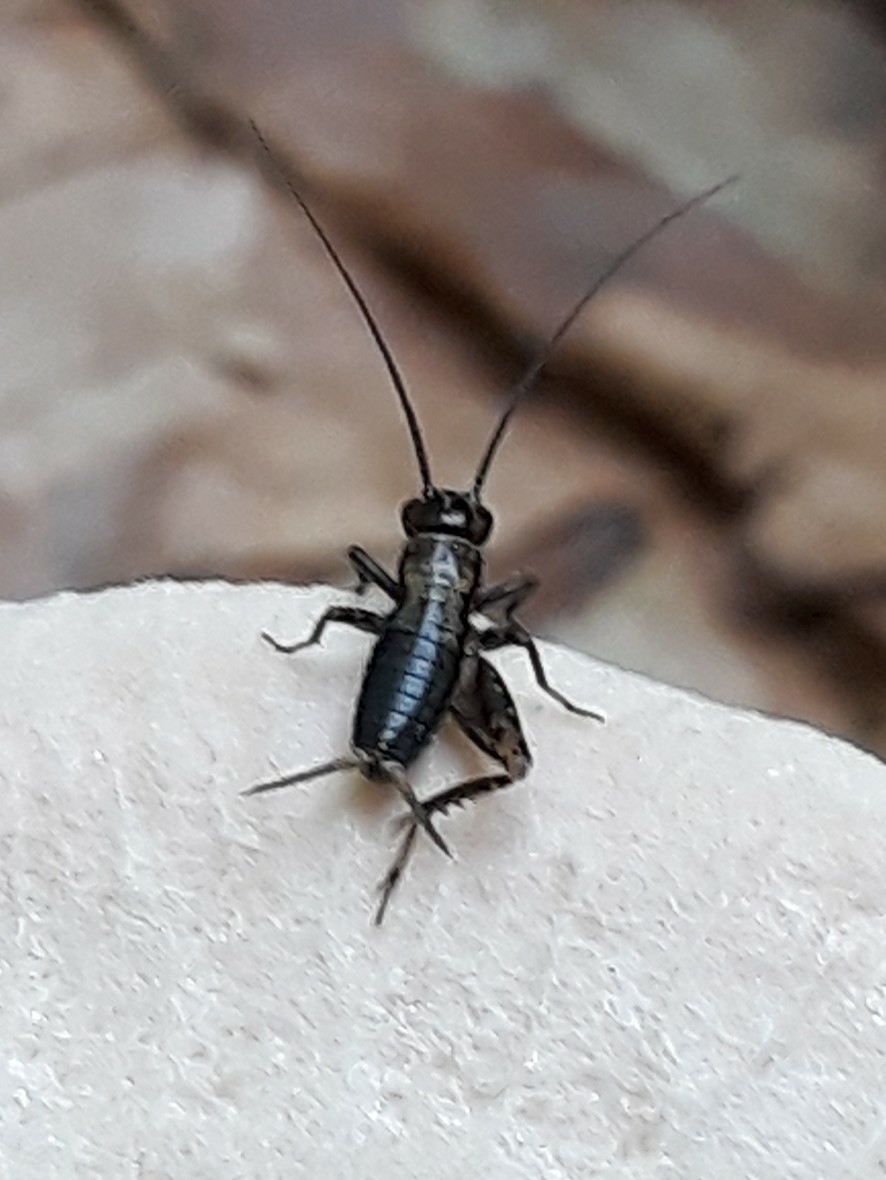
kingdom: Animalia
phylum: Arthropoda
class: Insecta
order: Orthoptera
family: Trigonidiidae
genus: Nemobius
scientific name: Nemobius sylvestris
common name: Wood-cricket
